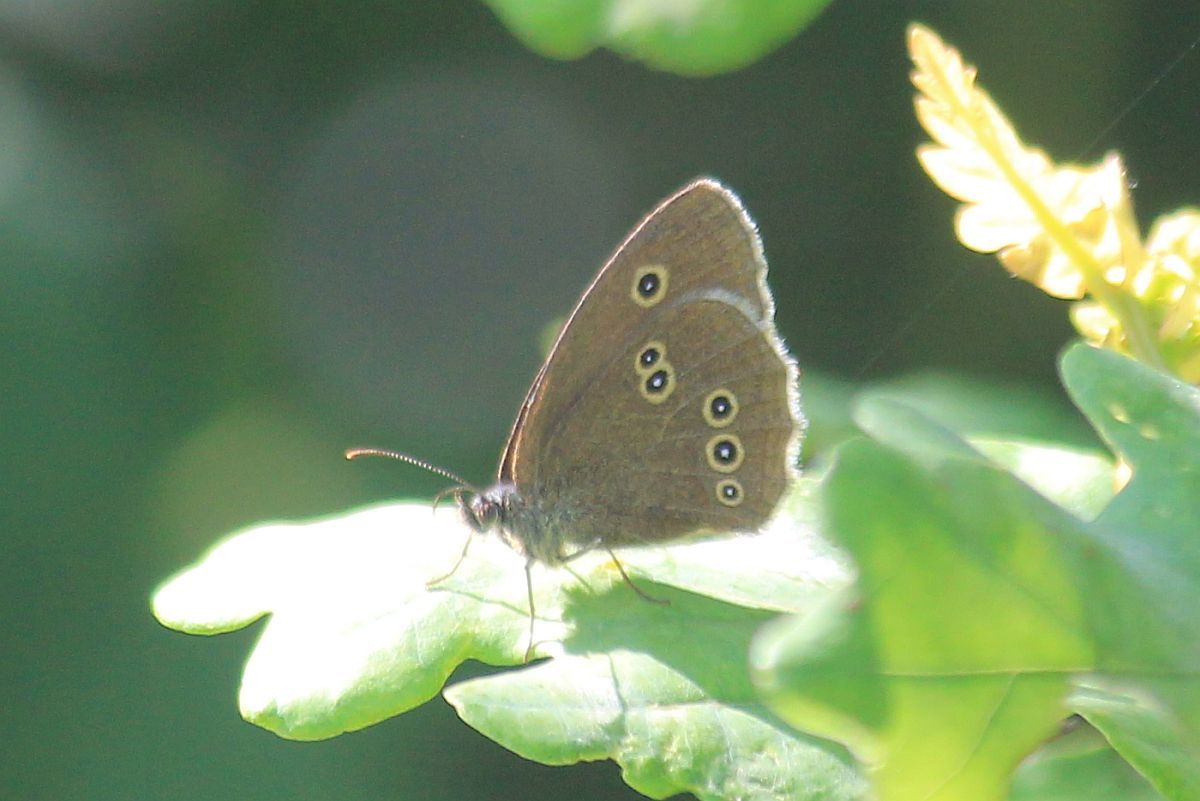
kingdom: Animalia
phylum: Arthropoda
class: Insecta
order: Lepidoptera
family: Nymphalidae
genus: Aphantopus
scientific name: Aphantopus hyperantus
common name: Ringlet
